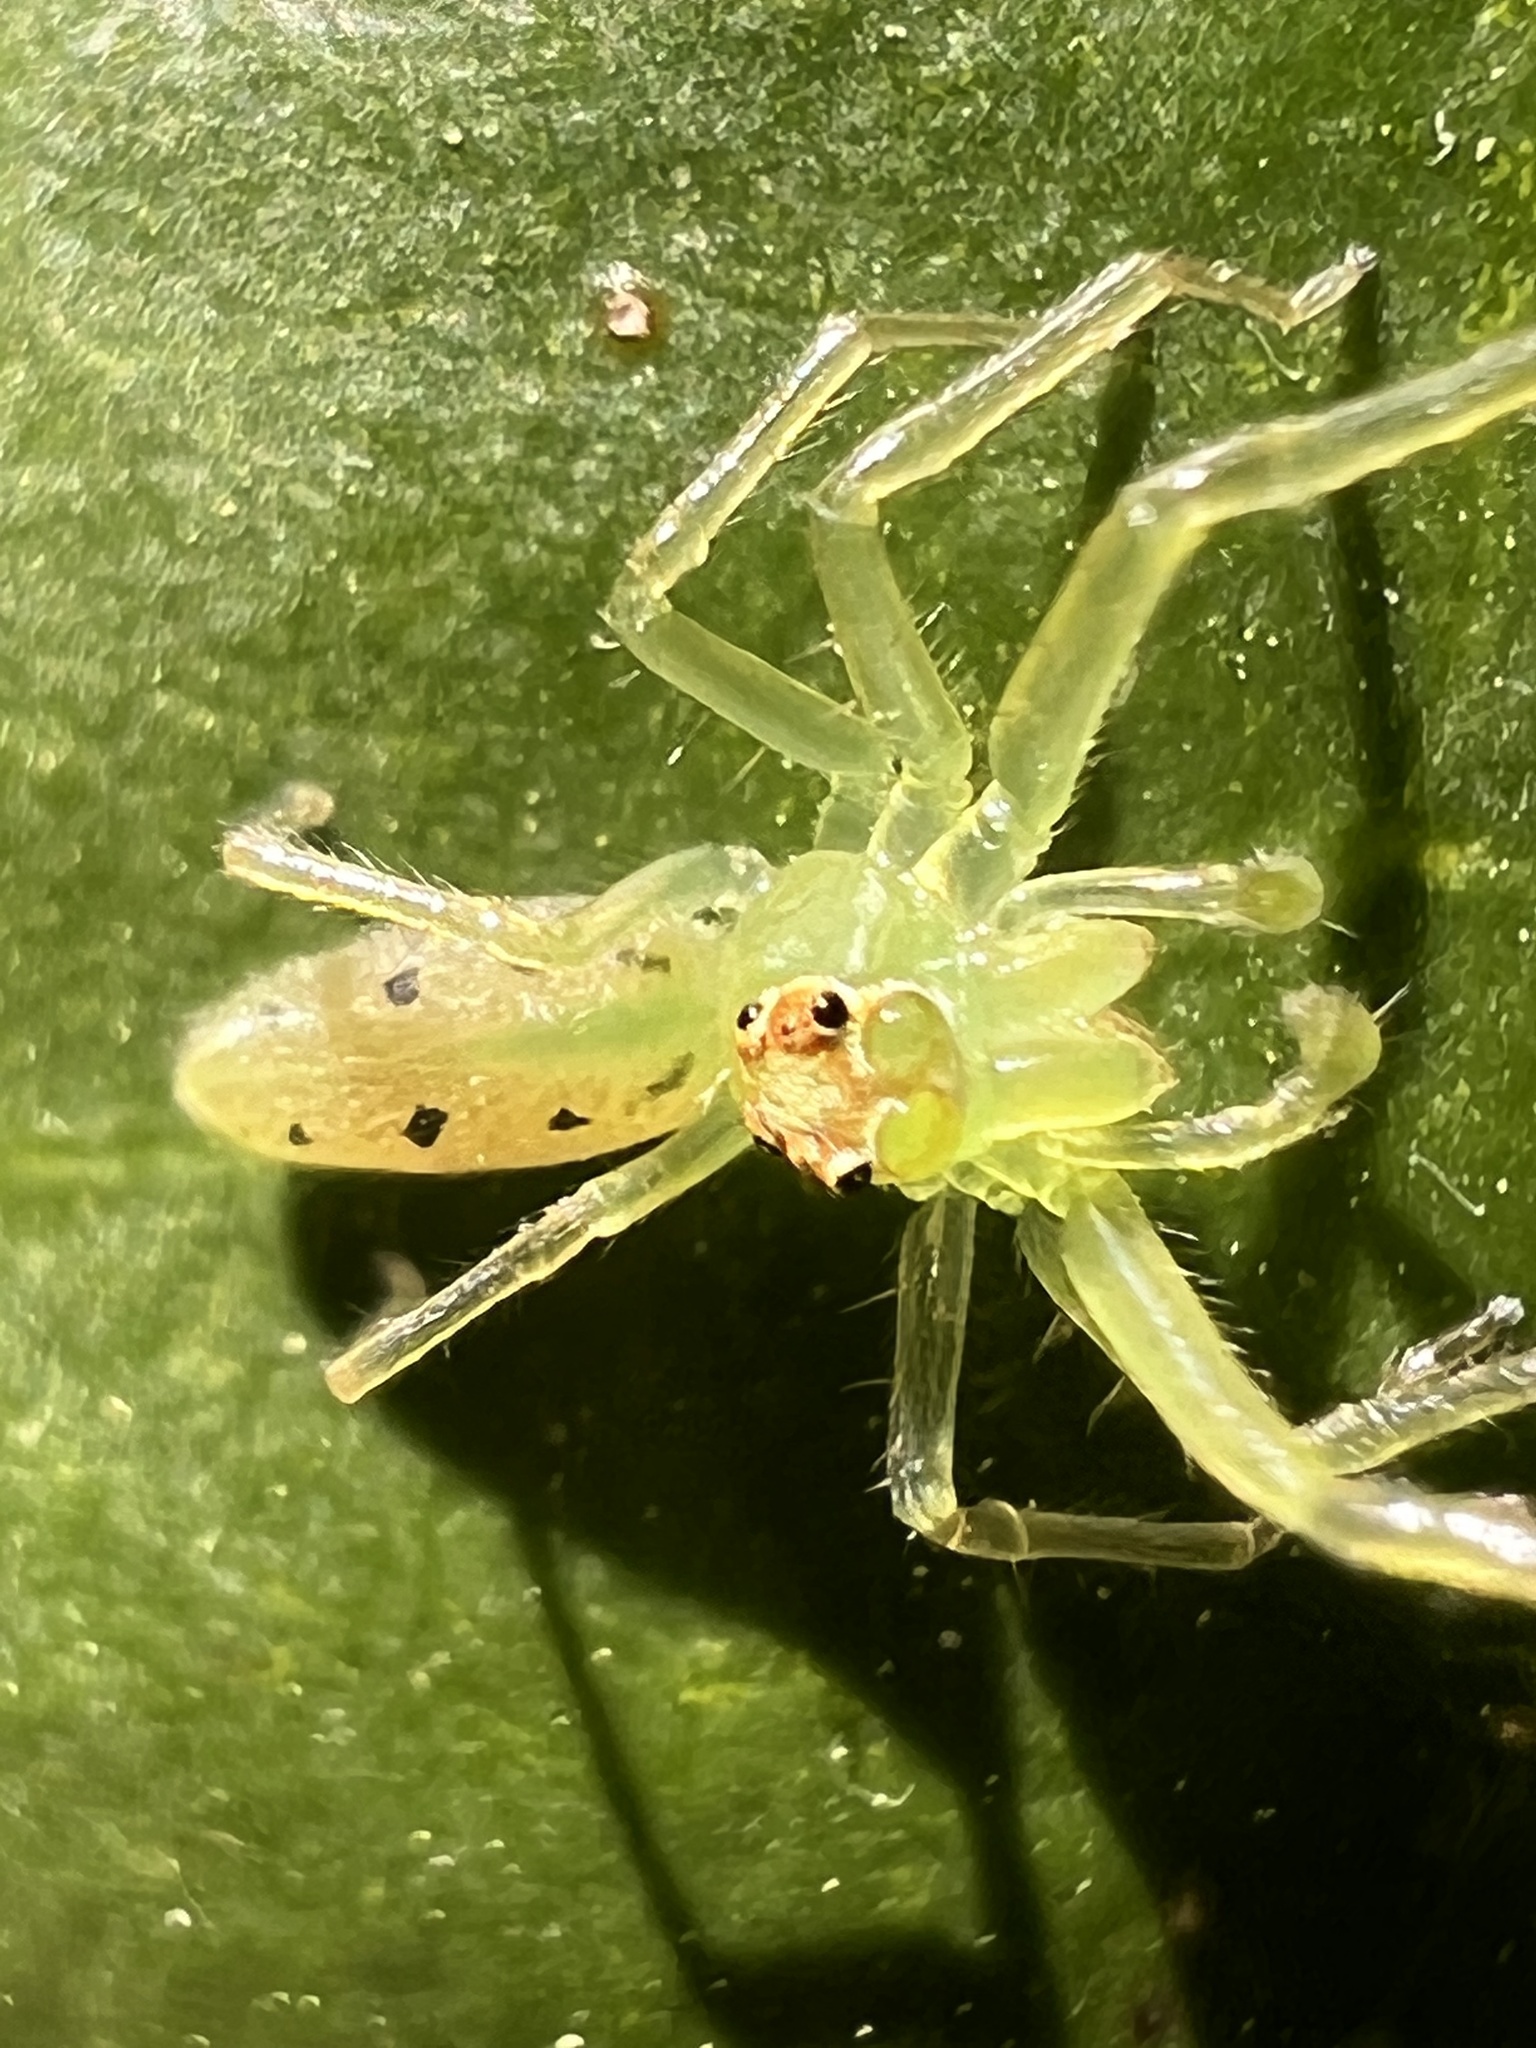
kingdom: Animalia
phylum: Arthropoda
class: Arachnida
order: Araneae
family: Salticidae
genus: Lyssomanes
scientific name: Lyssomanes viridis
